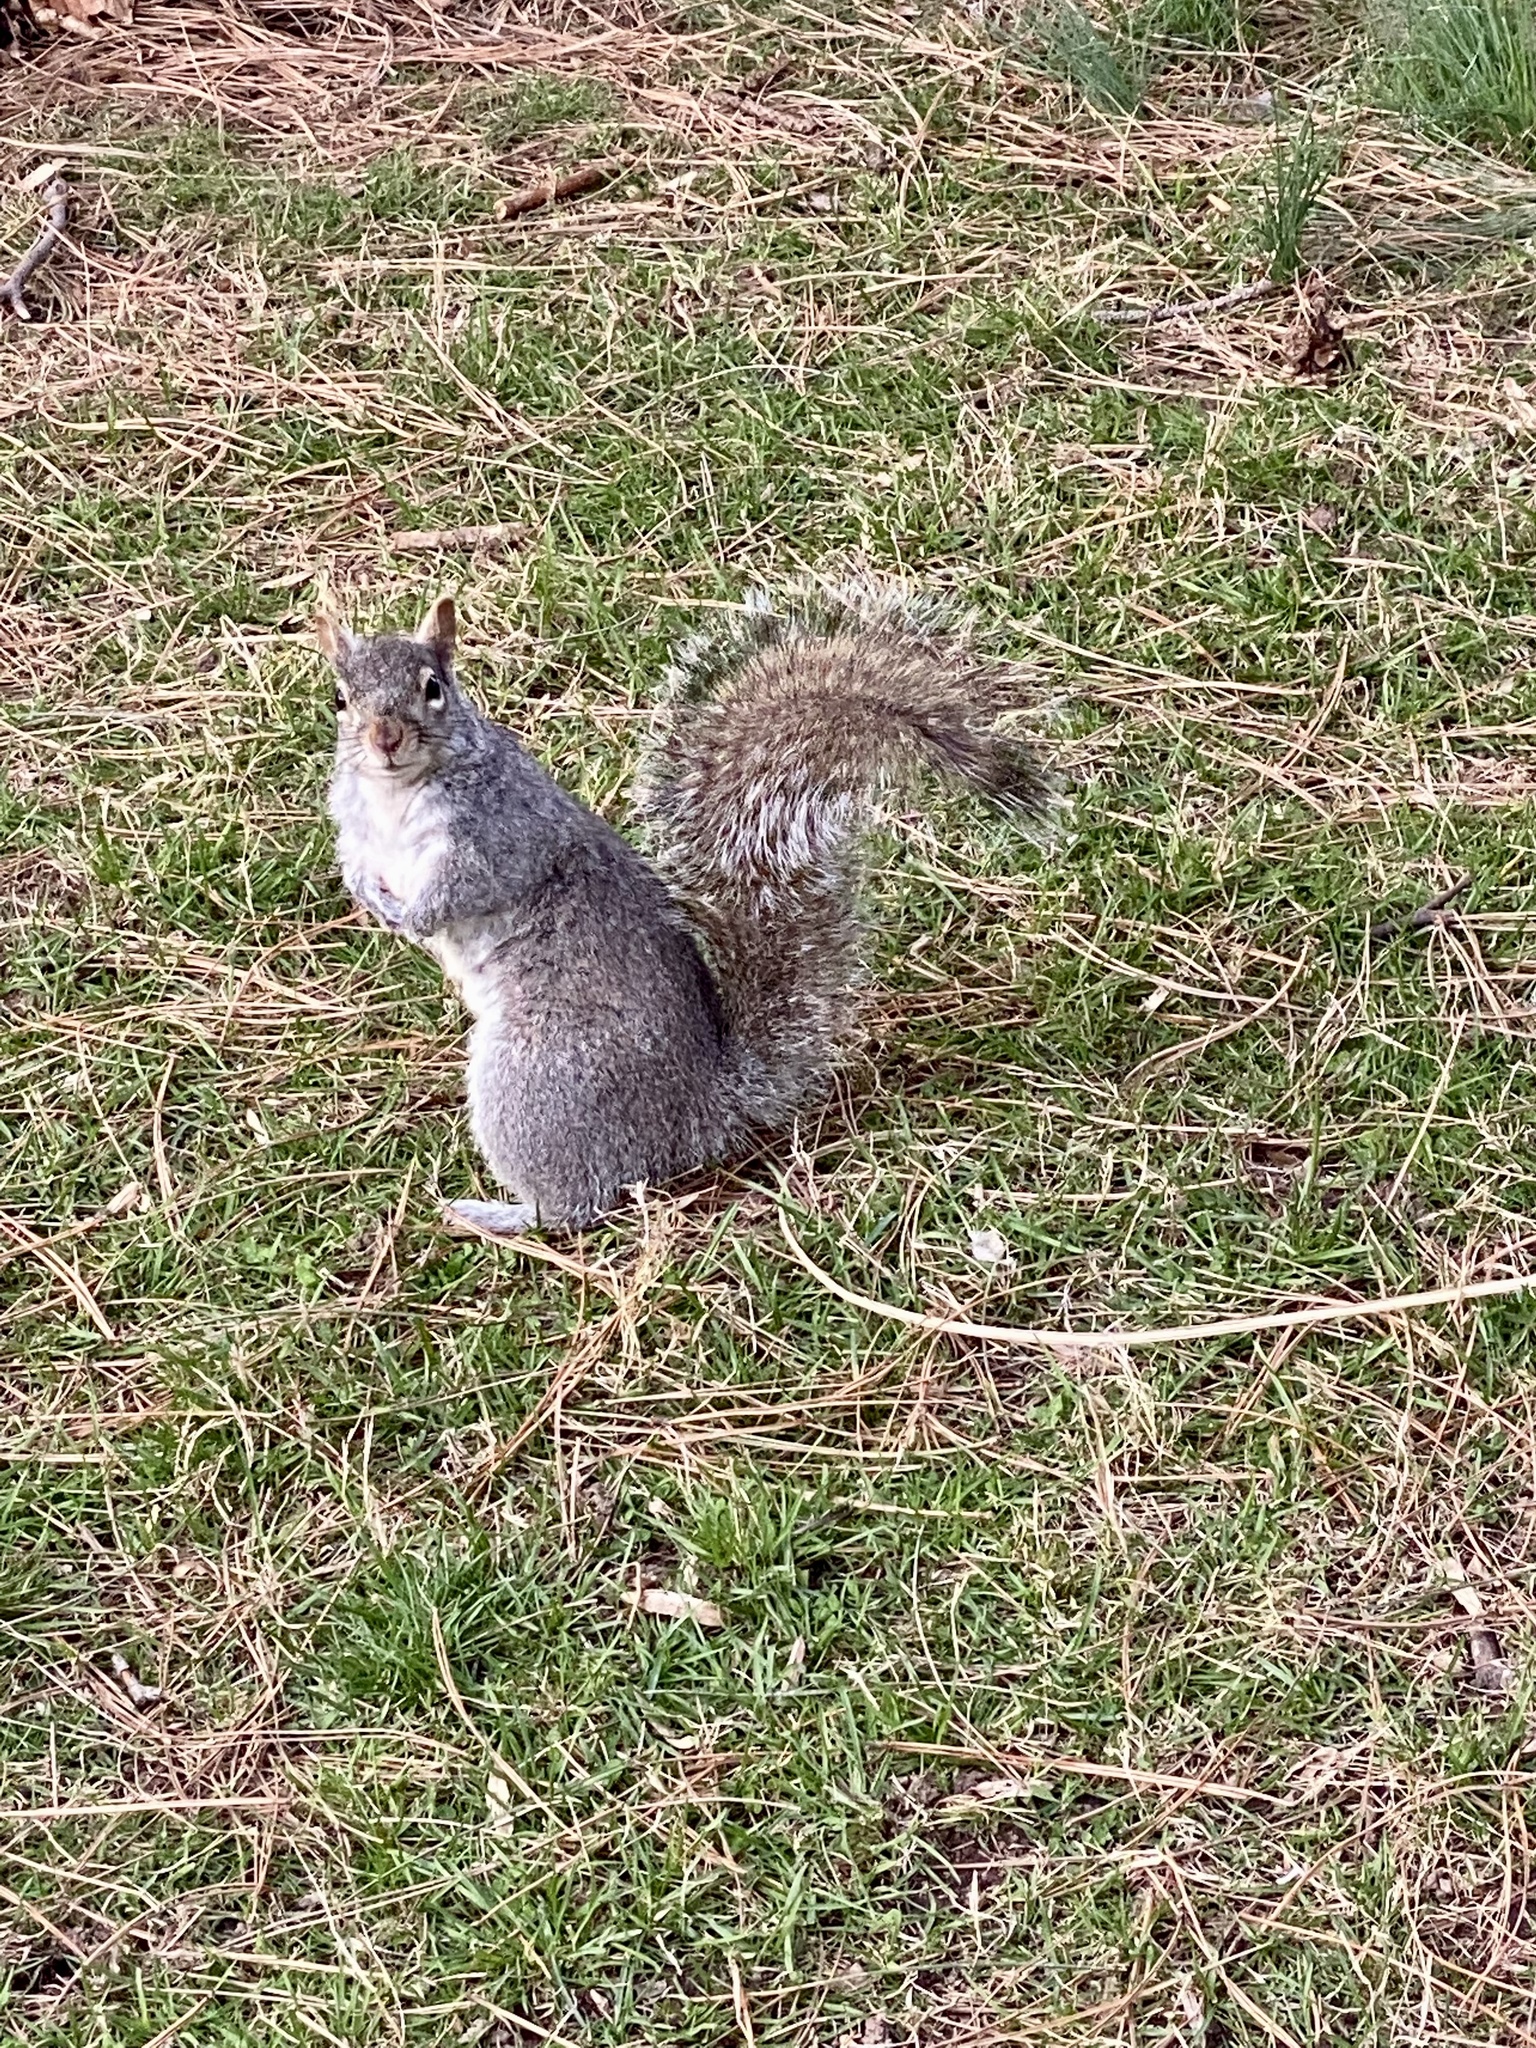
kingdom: Animalia
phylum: Chordata
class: Mammalia
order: Rodentia
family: Sciuridae
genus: Sciurus
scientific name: Sciurus carolinensis
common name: Eastern gray squirrel
